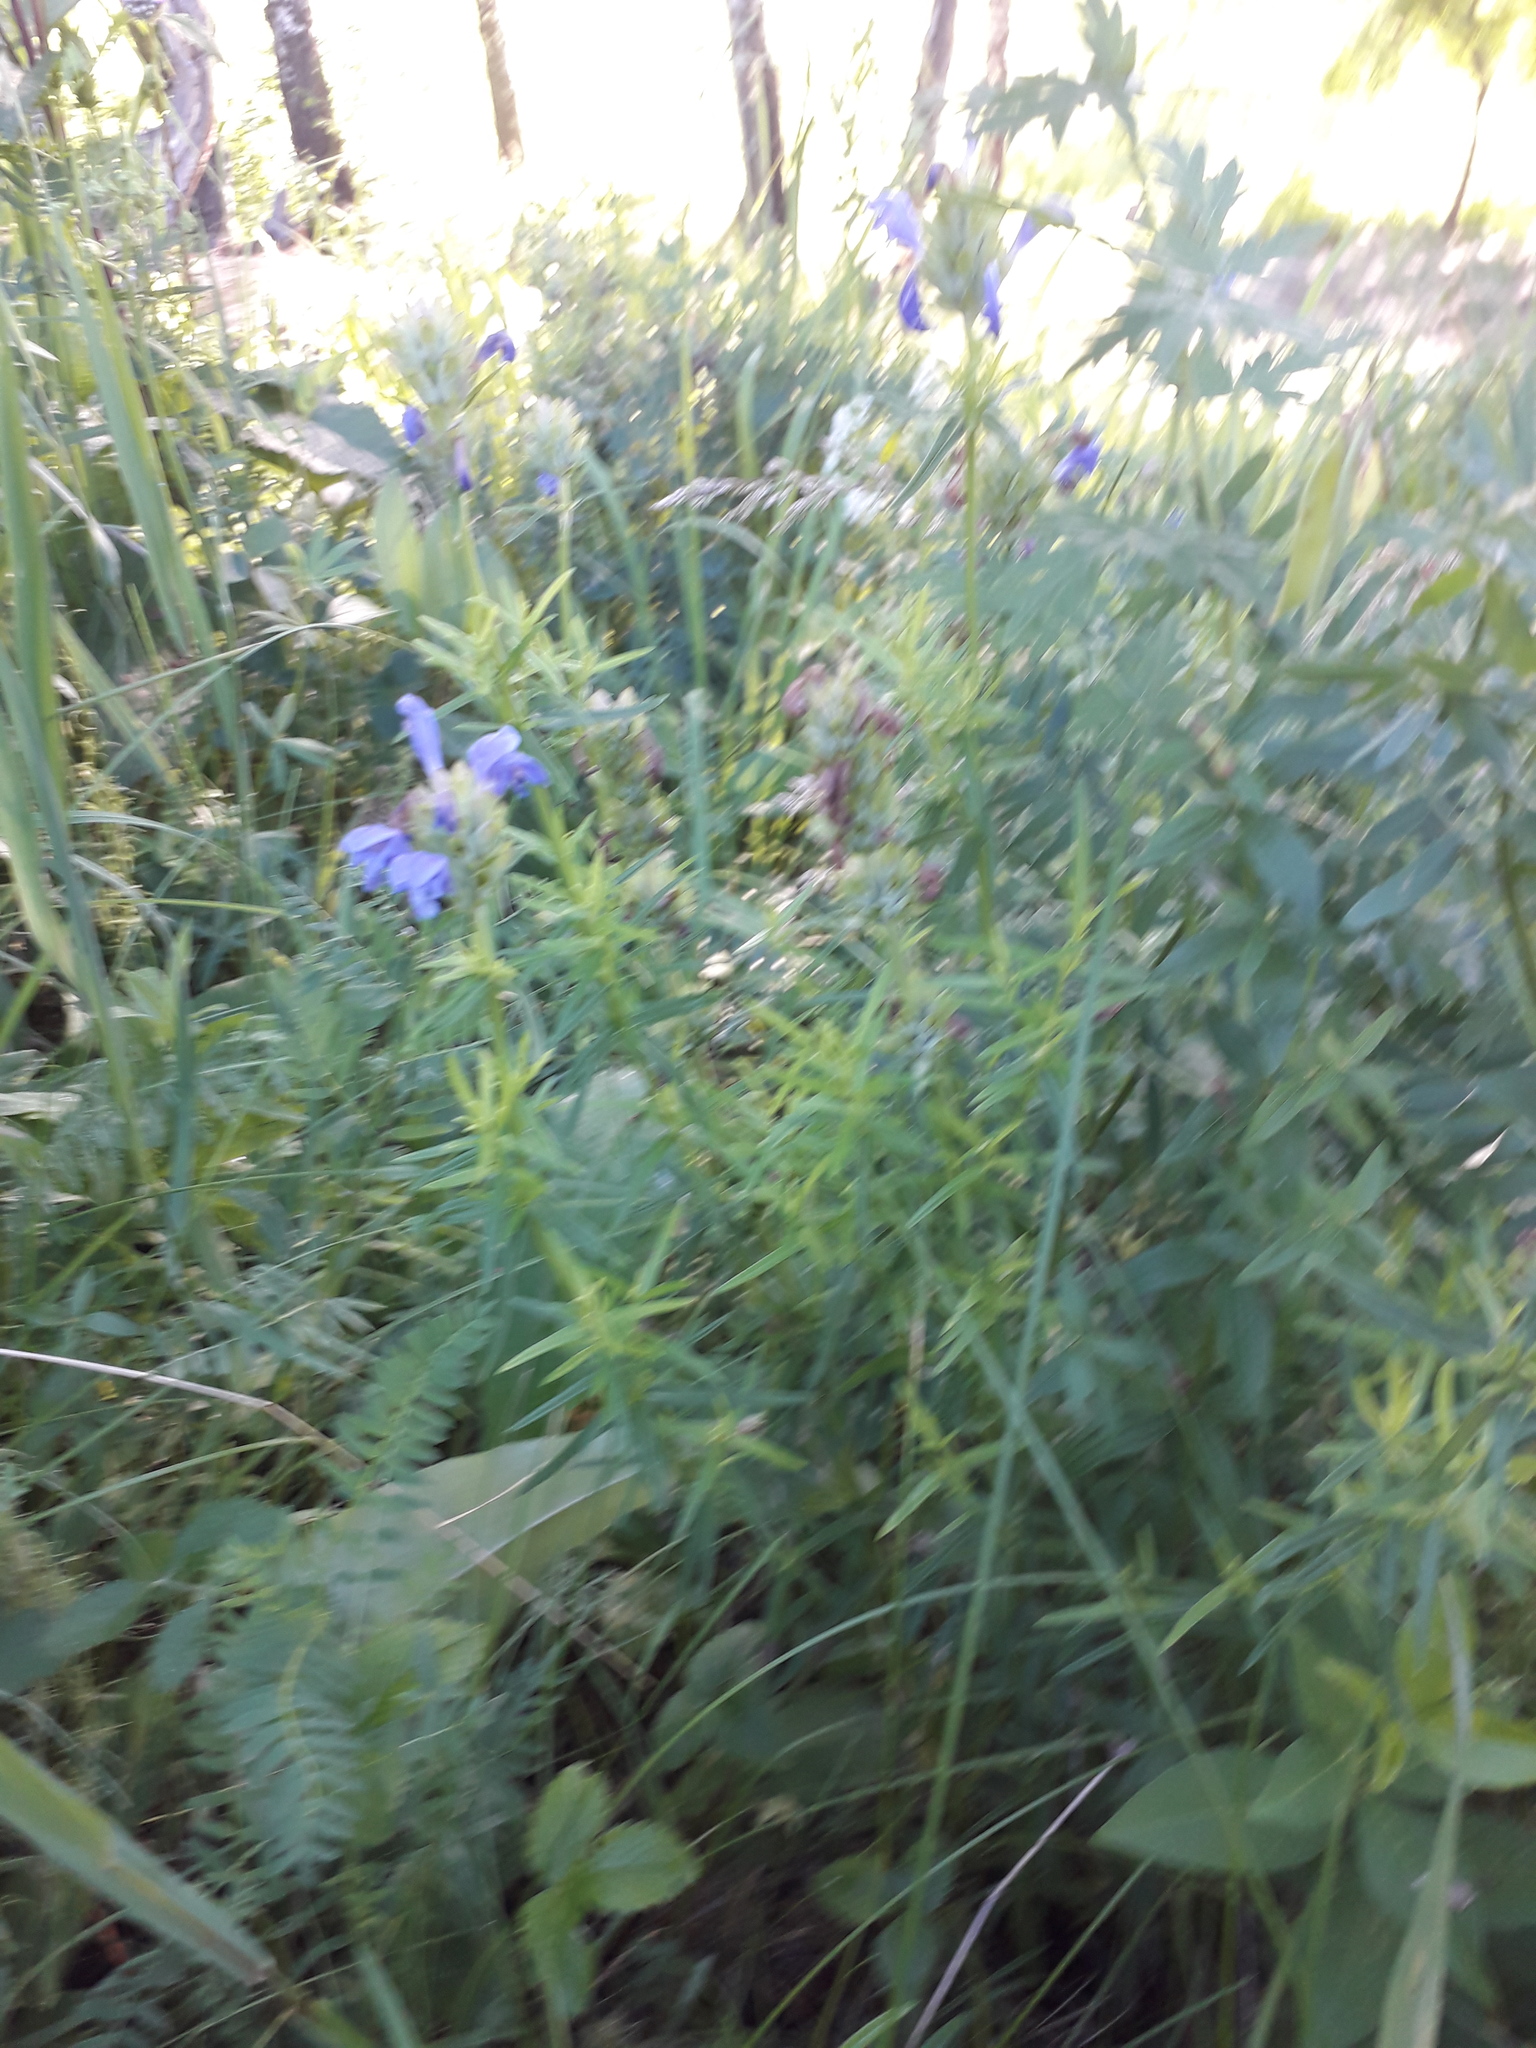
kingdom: Plantae
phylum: Tracheophyta
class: Magnoliopsida
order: Lamiales
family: Lamiaceae
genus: Dracocephalum
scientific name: Dracocephalum ruyschiana
